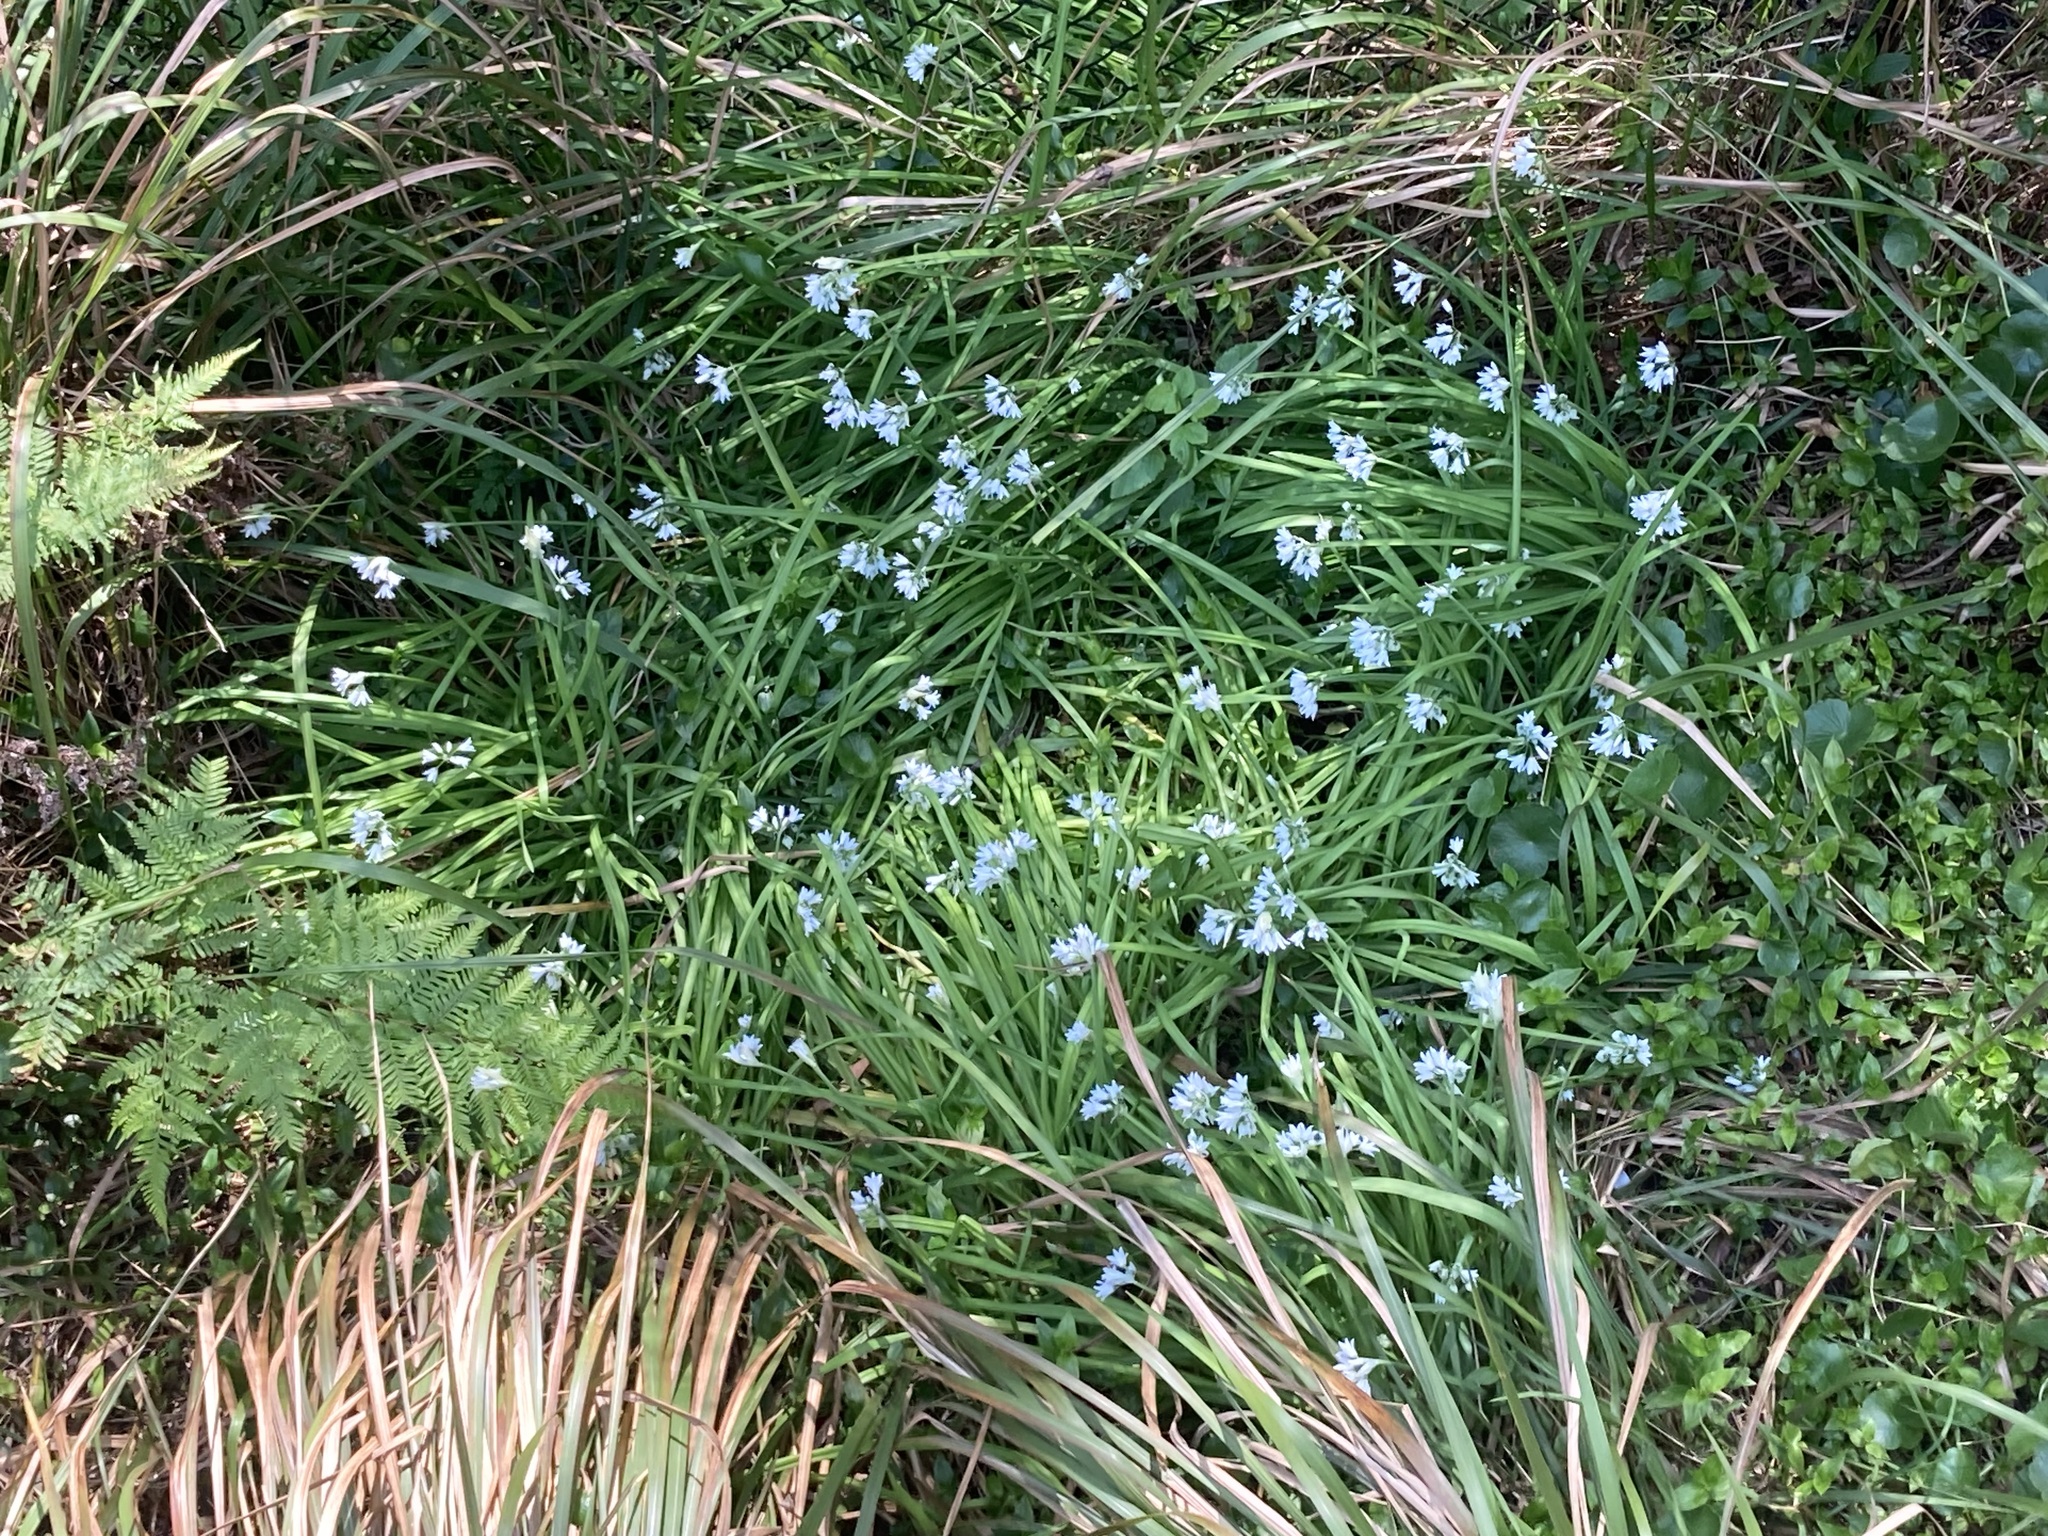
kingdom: Plantae
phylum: Tracheophyta
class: Liliopsida
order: Asparagales
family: Amaryllidaceae
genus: Allium
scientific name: Allium triquetrum
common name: Three-cornered garlic
